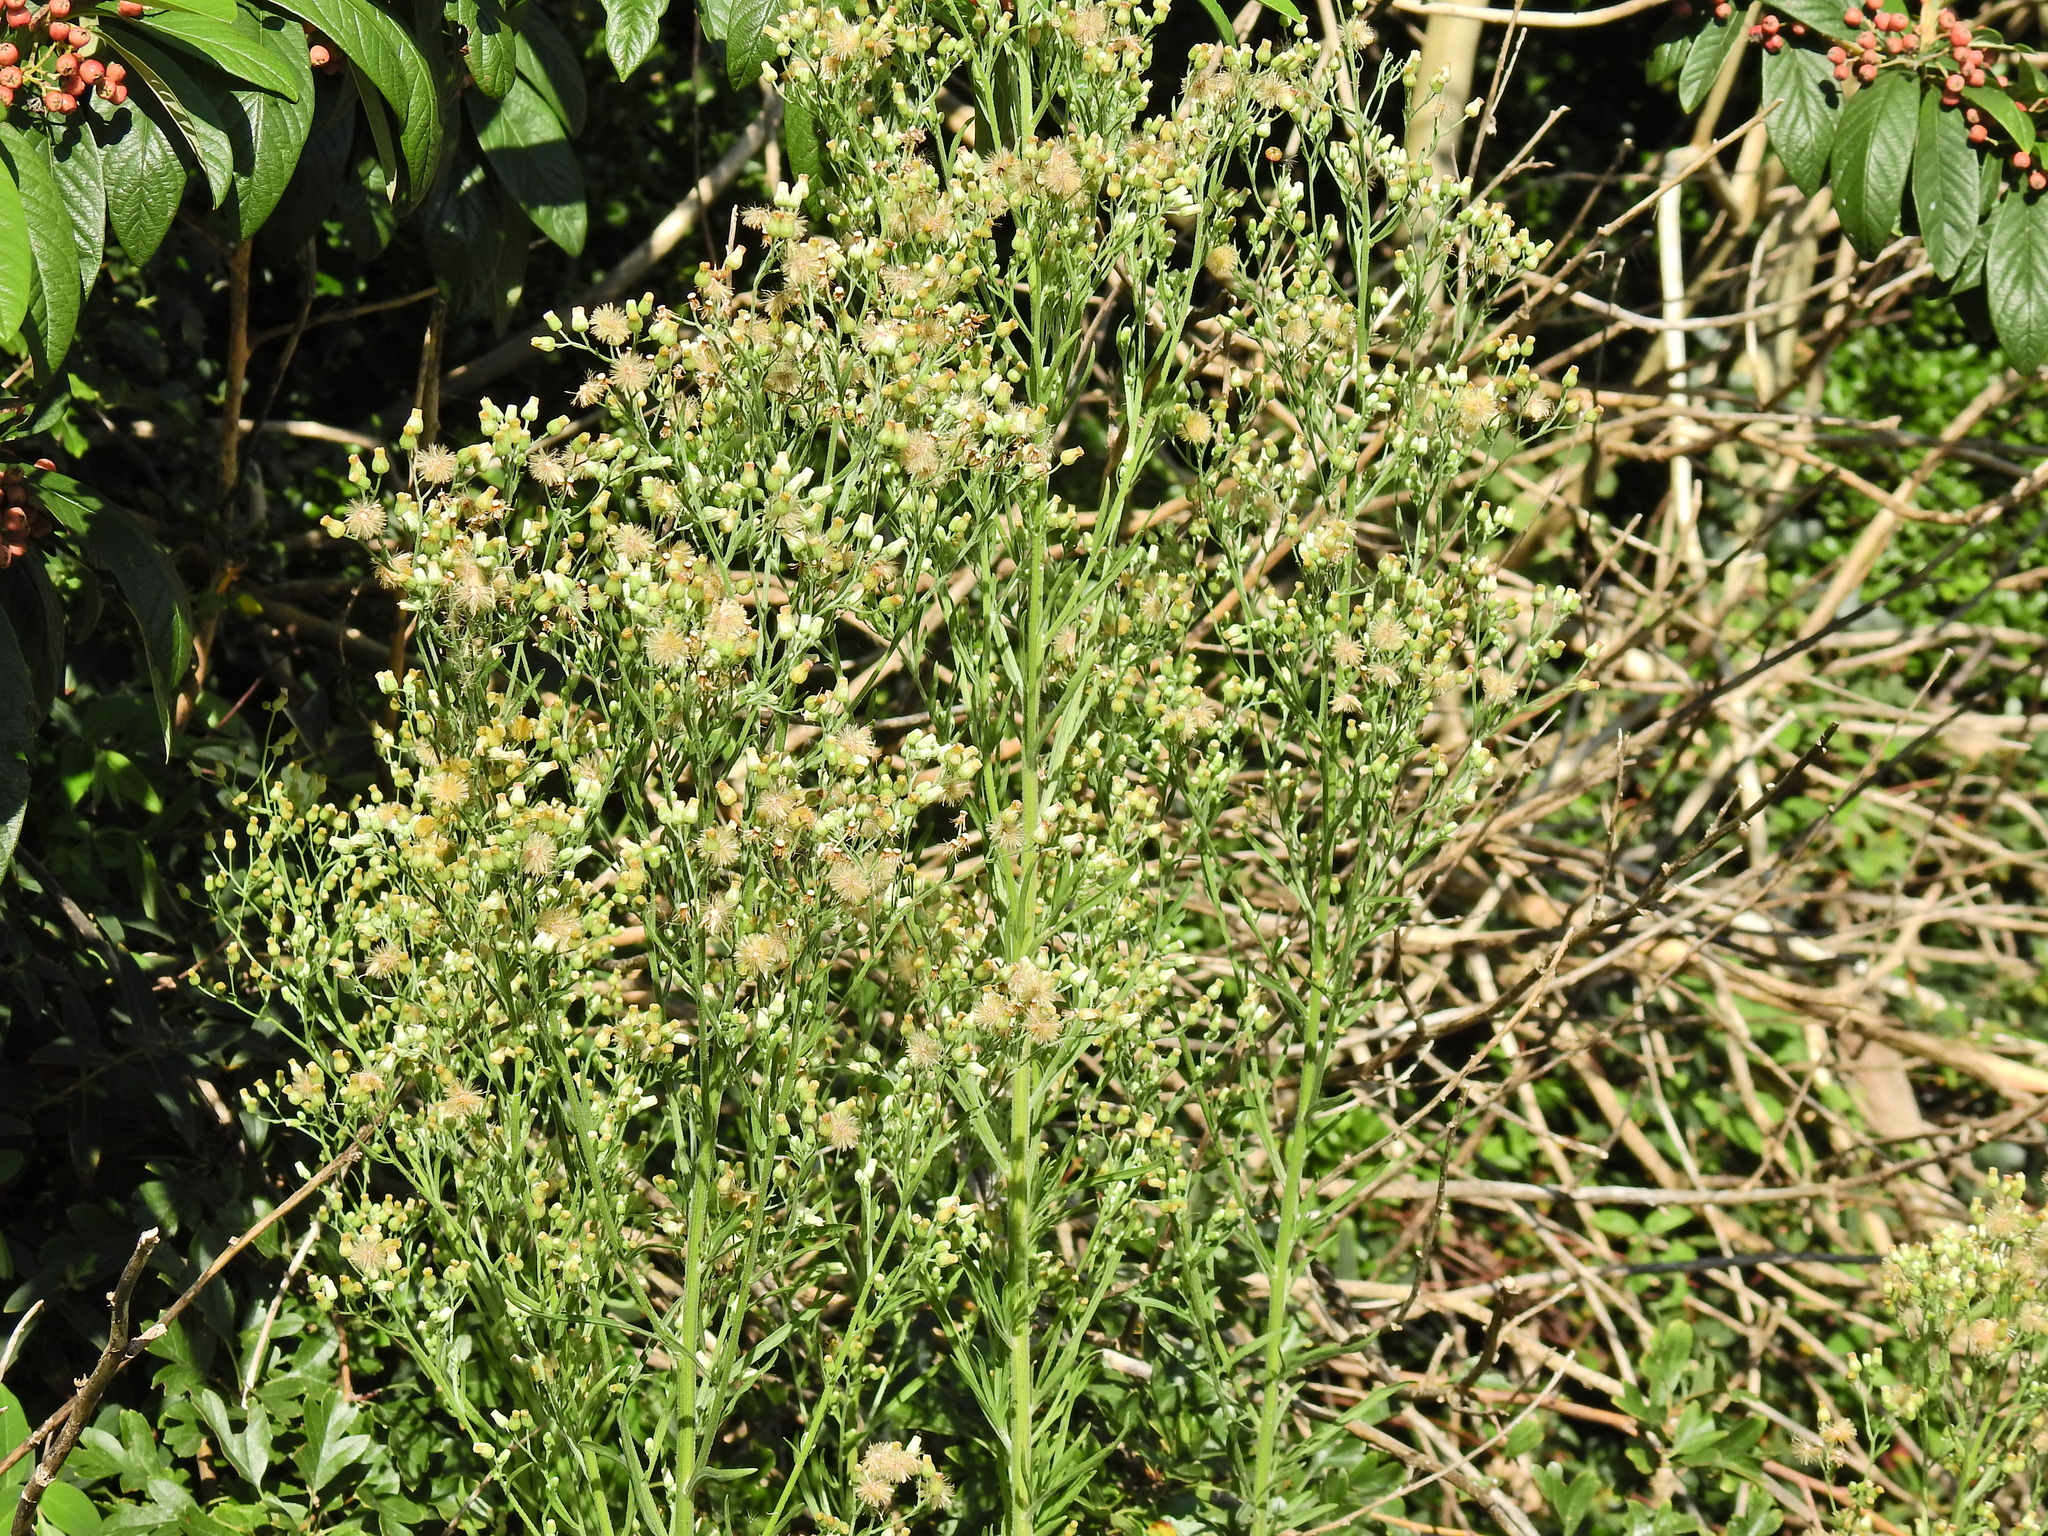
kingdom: Plantae
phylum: Tracheophyta
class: Magnoliopsida
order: Asterales
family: Asteraceae
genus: Erigeron
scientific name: Erigeron canadensis
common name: Canadian fleabane
